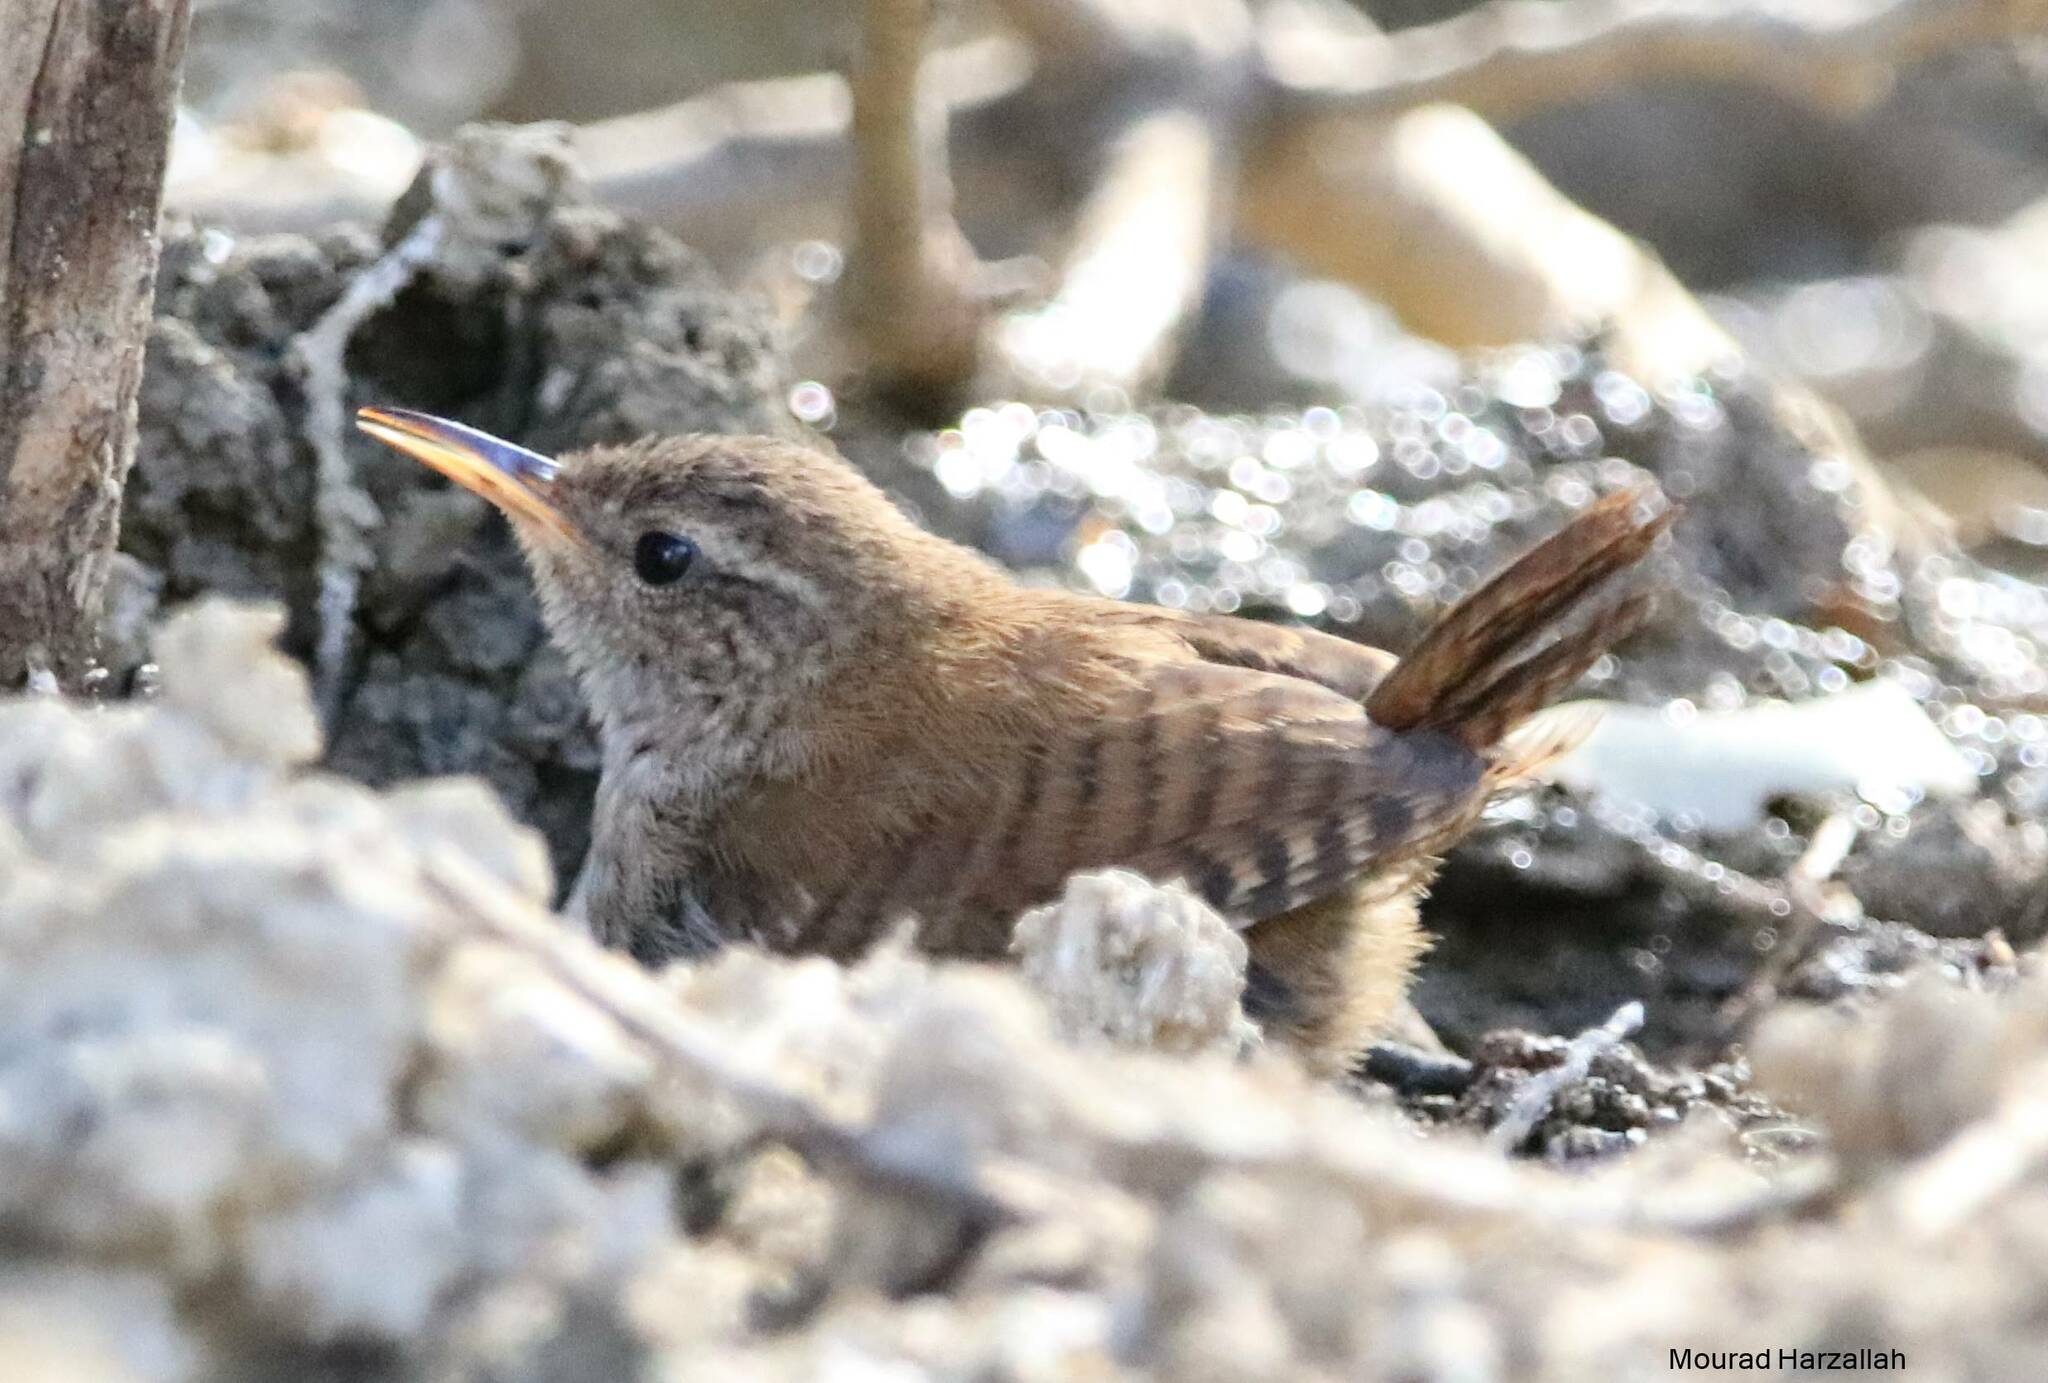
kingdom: Animalia
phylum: Chordata
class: Aves
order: Passeriformes
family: Troglodytidae
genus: Troglodytes
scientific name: Troglodytes troglodytes
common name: Eurasian wren
